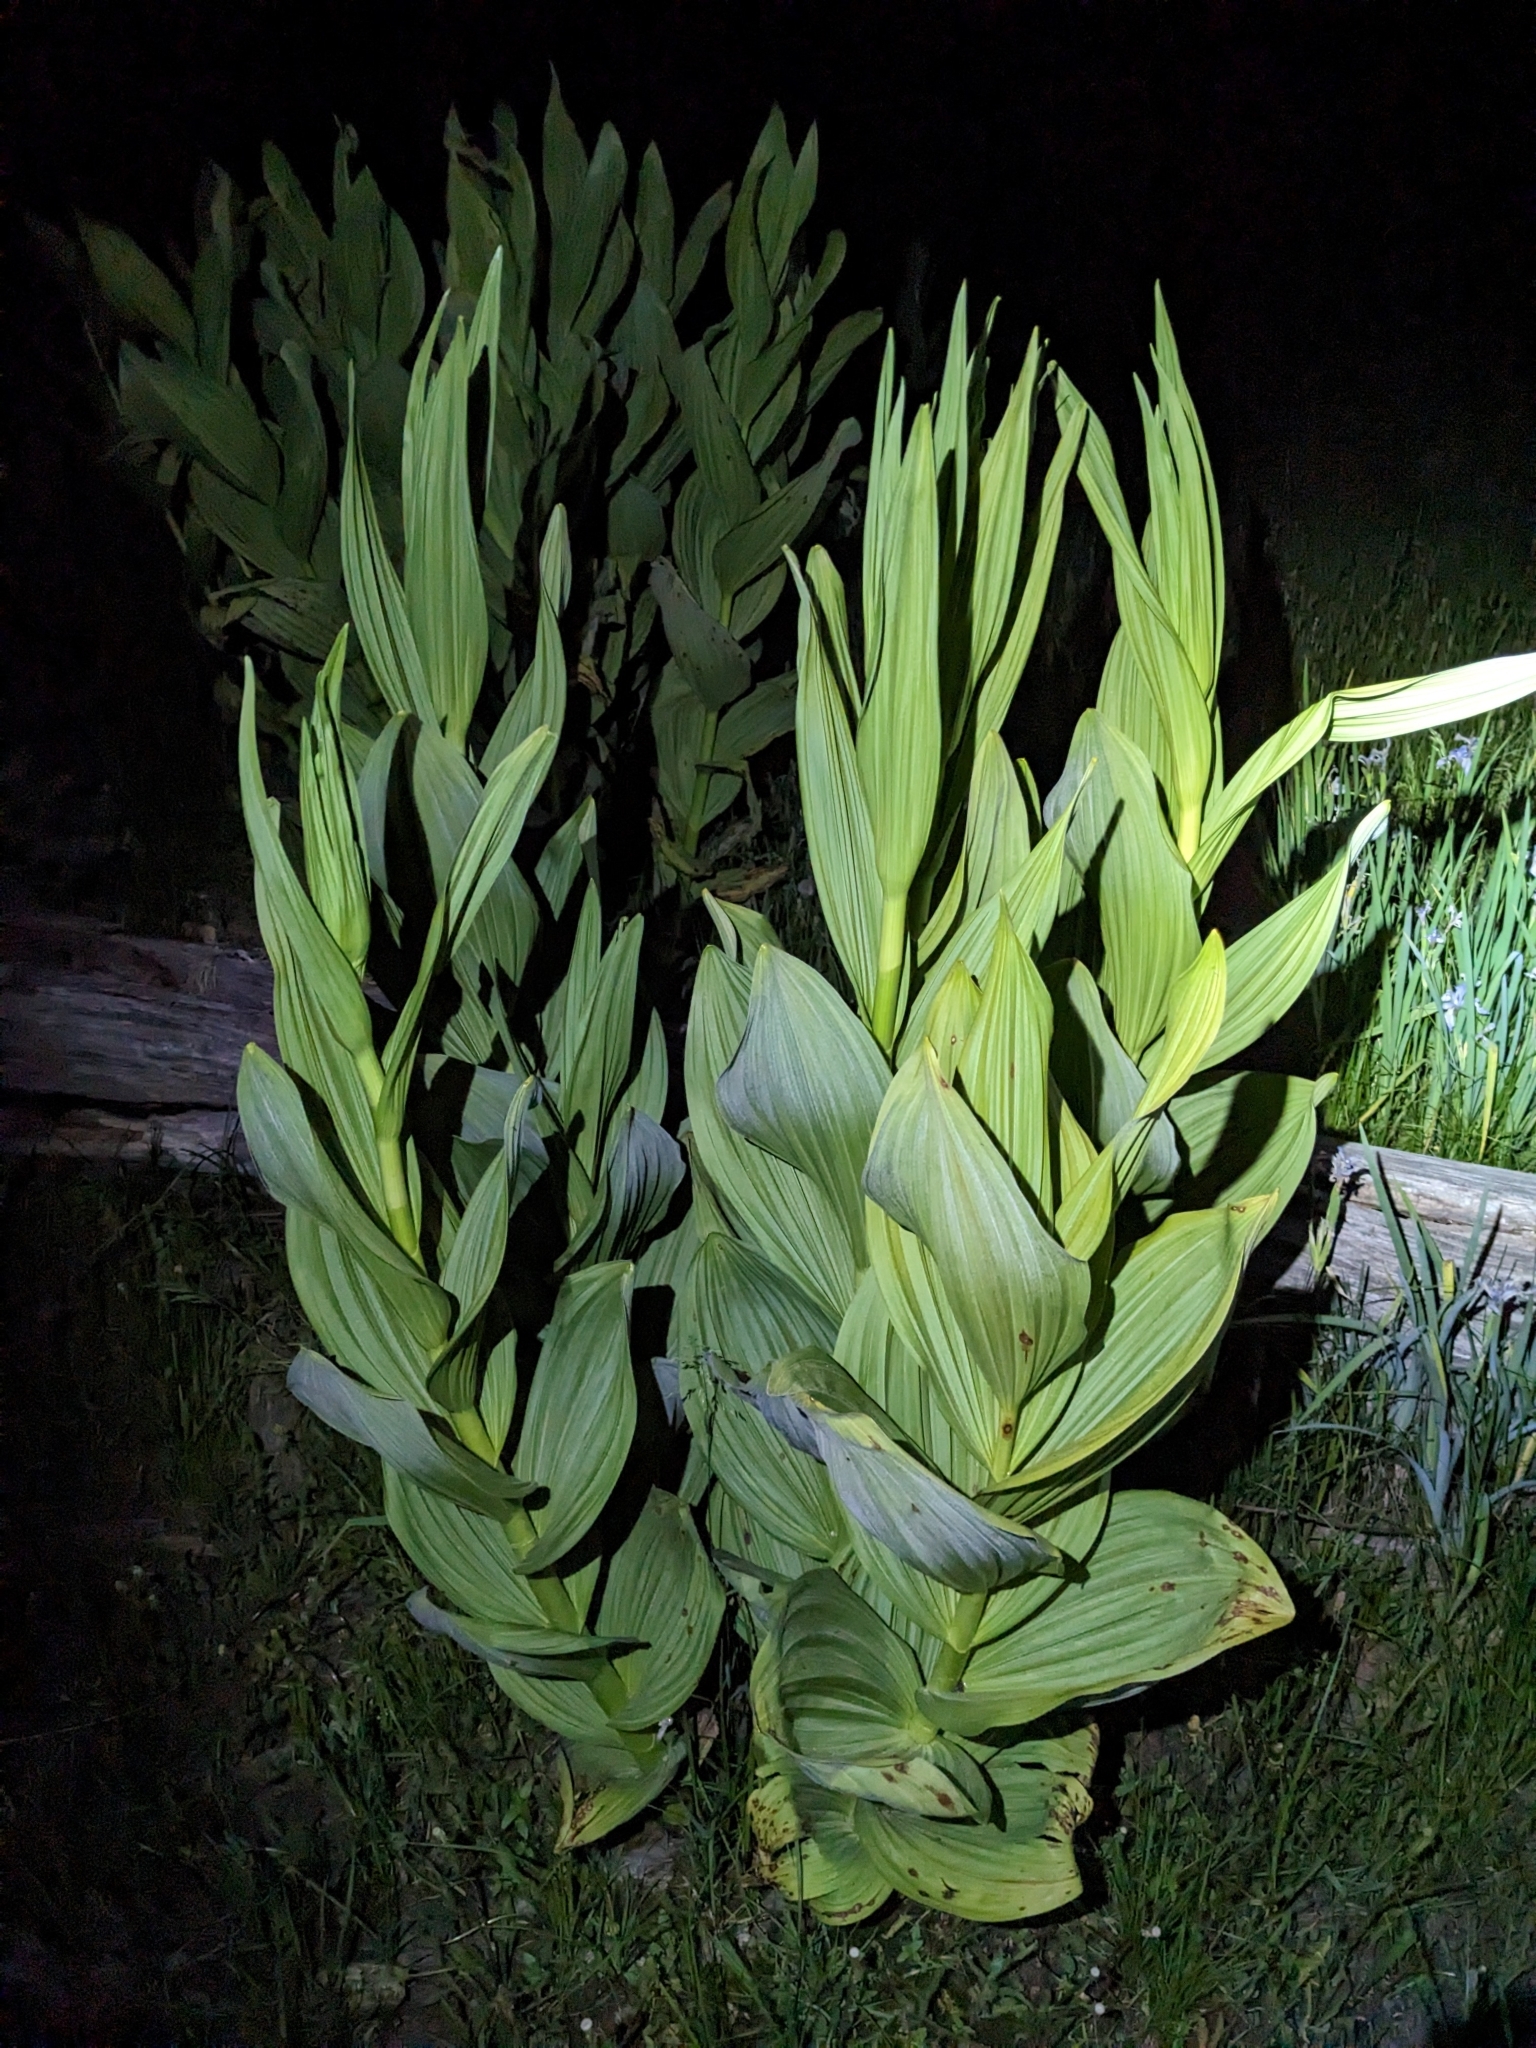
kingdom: Plantae
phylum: Tracheophyta
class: Liliopsida
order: Liliales
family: Melanthiaceae
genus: Veratrum
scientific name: Veratrum californicum
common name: California veratrum
